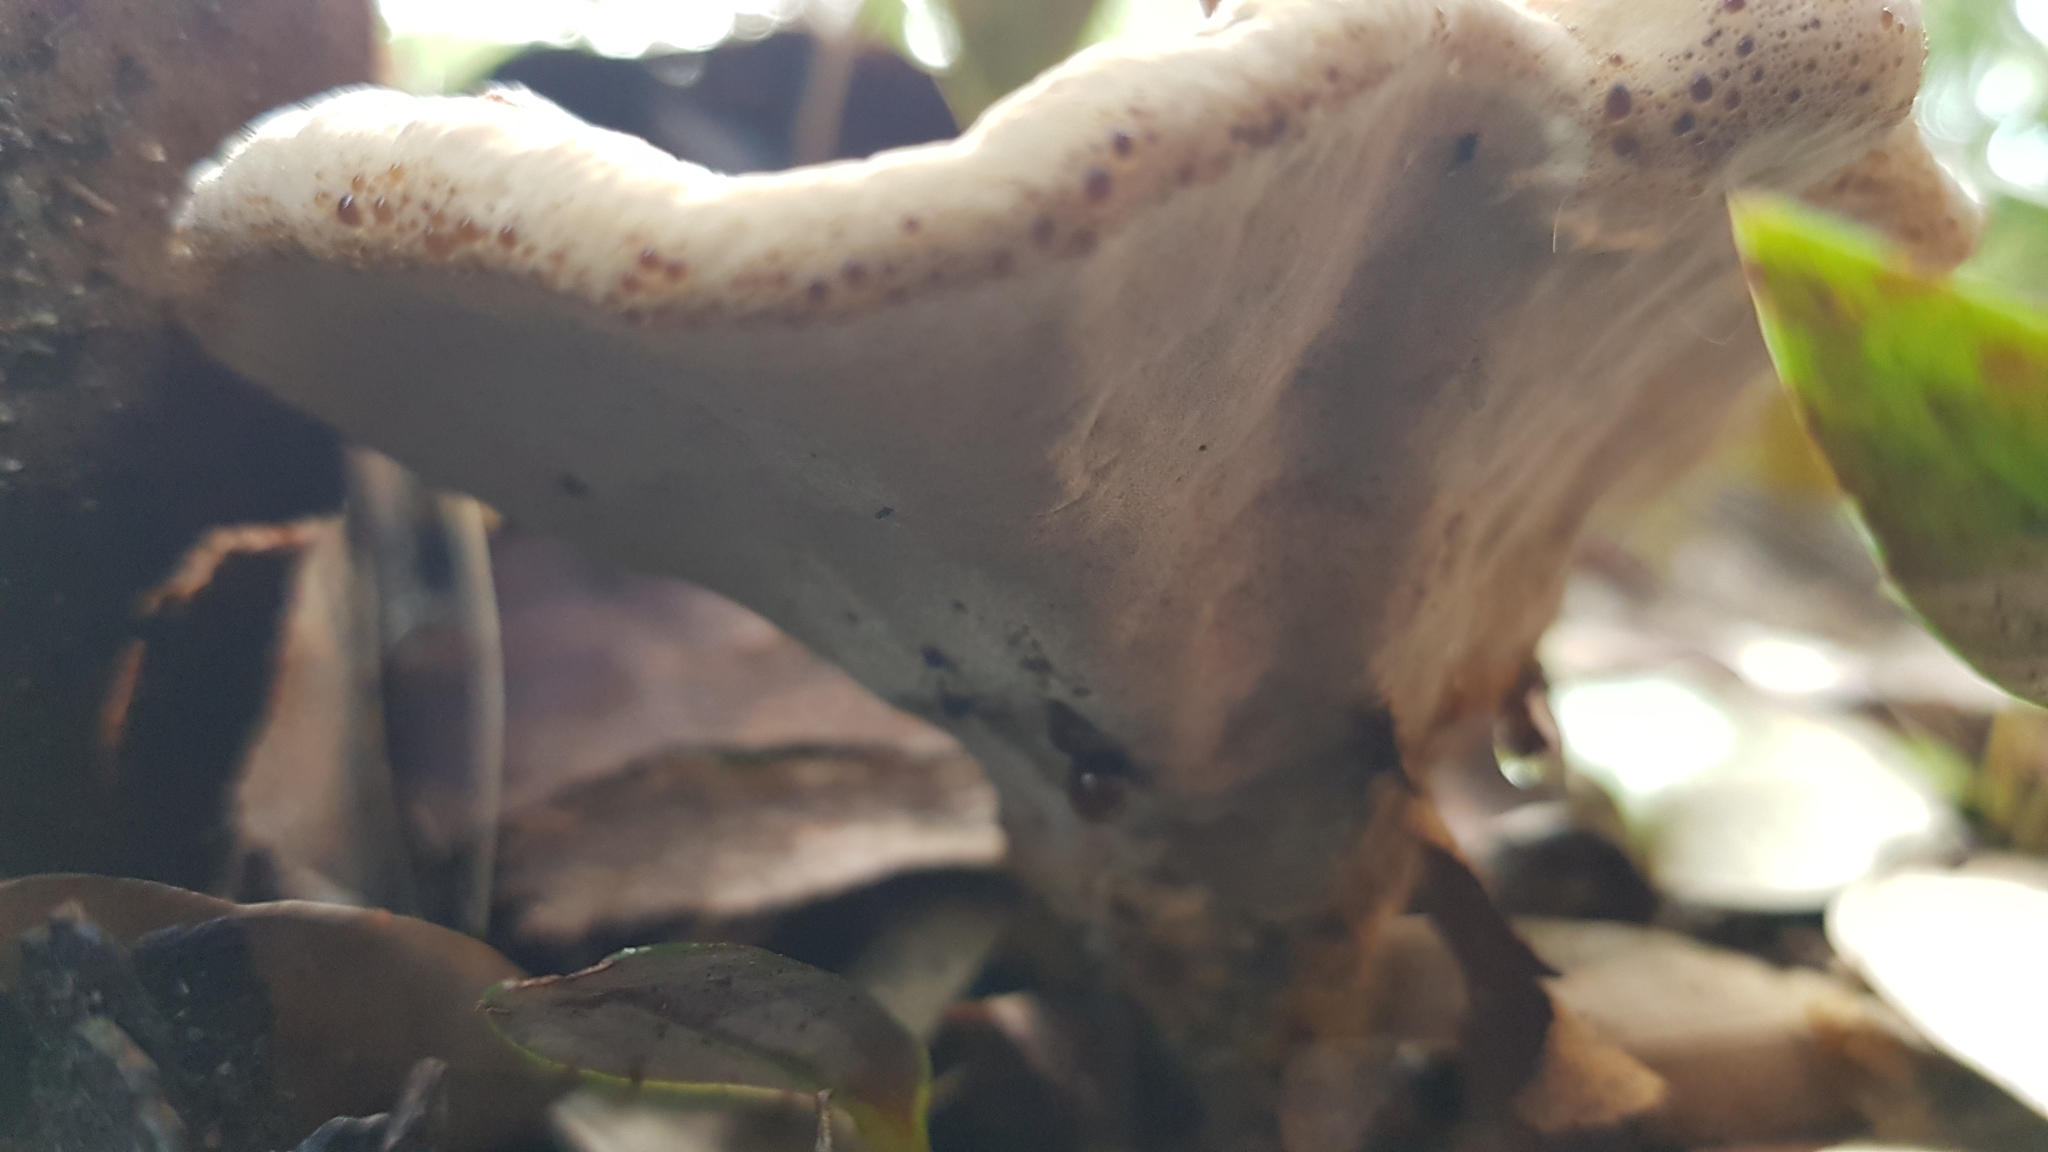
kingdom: Fungi
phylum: Basidiomycota
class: Agaricomycetes
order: Hymenochaetales
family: Hymenochaetaceae
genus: Inonotus
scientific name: Inonotus albertinii
